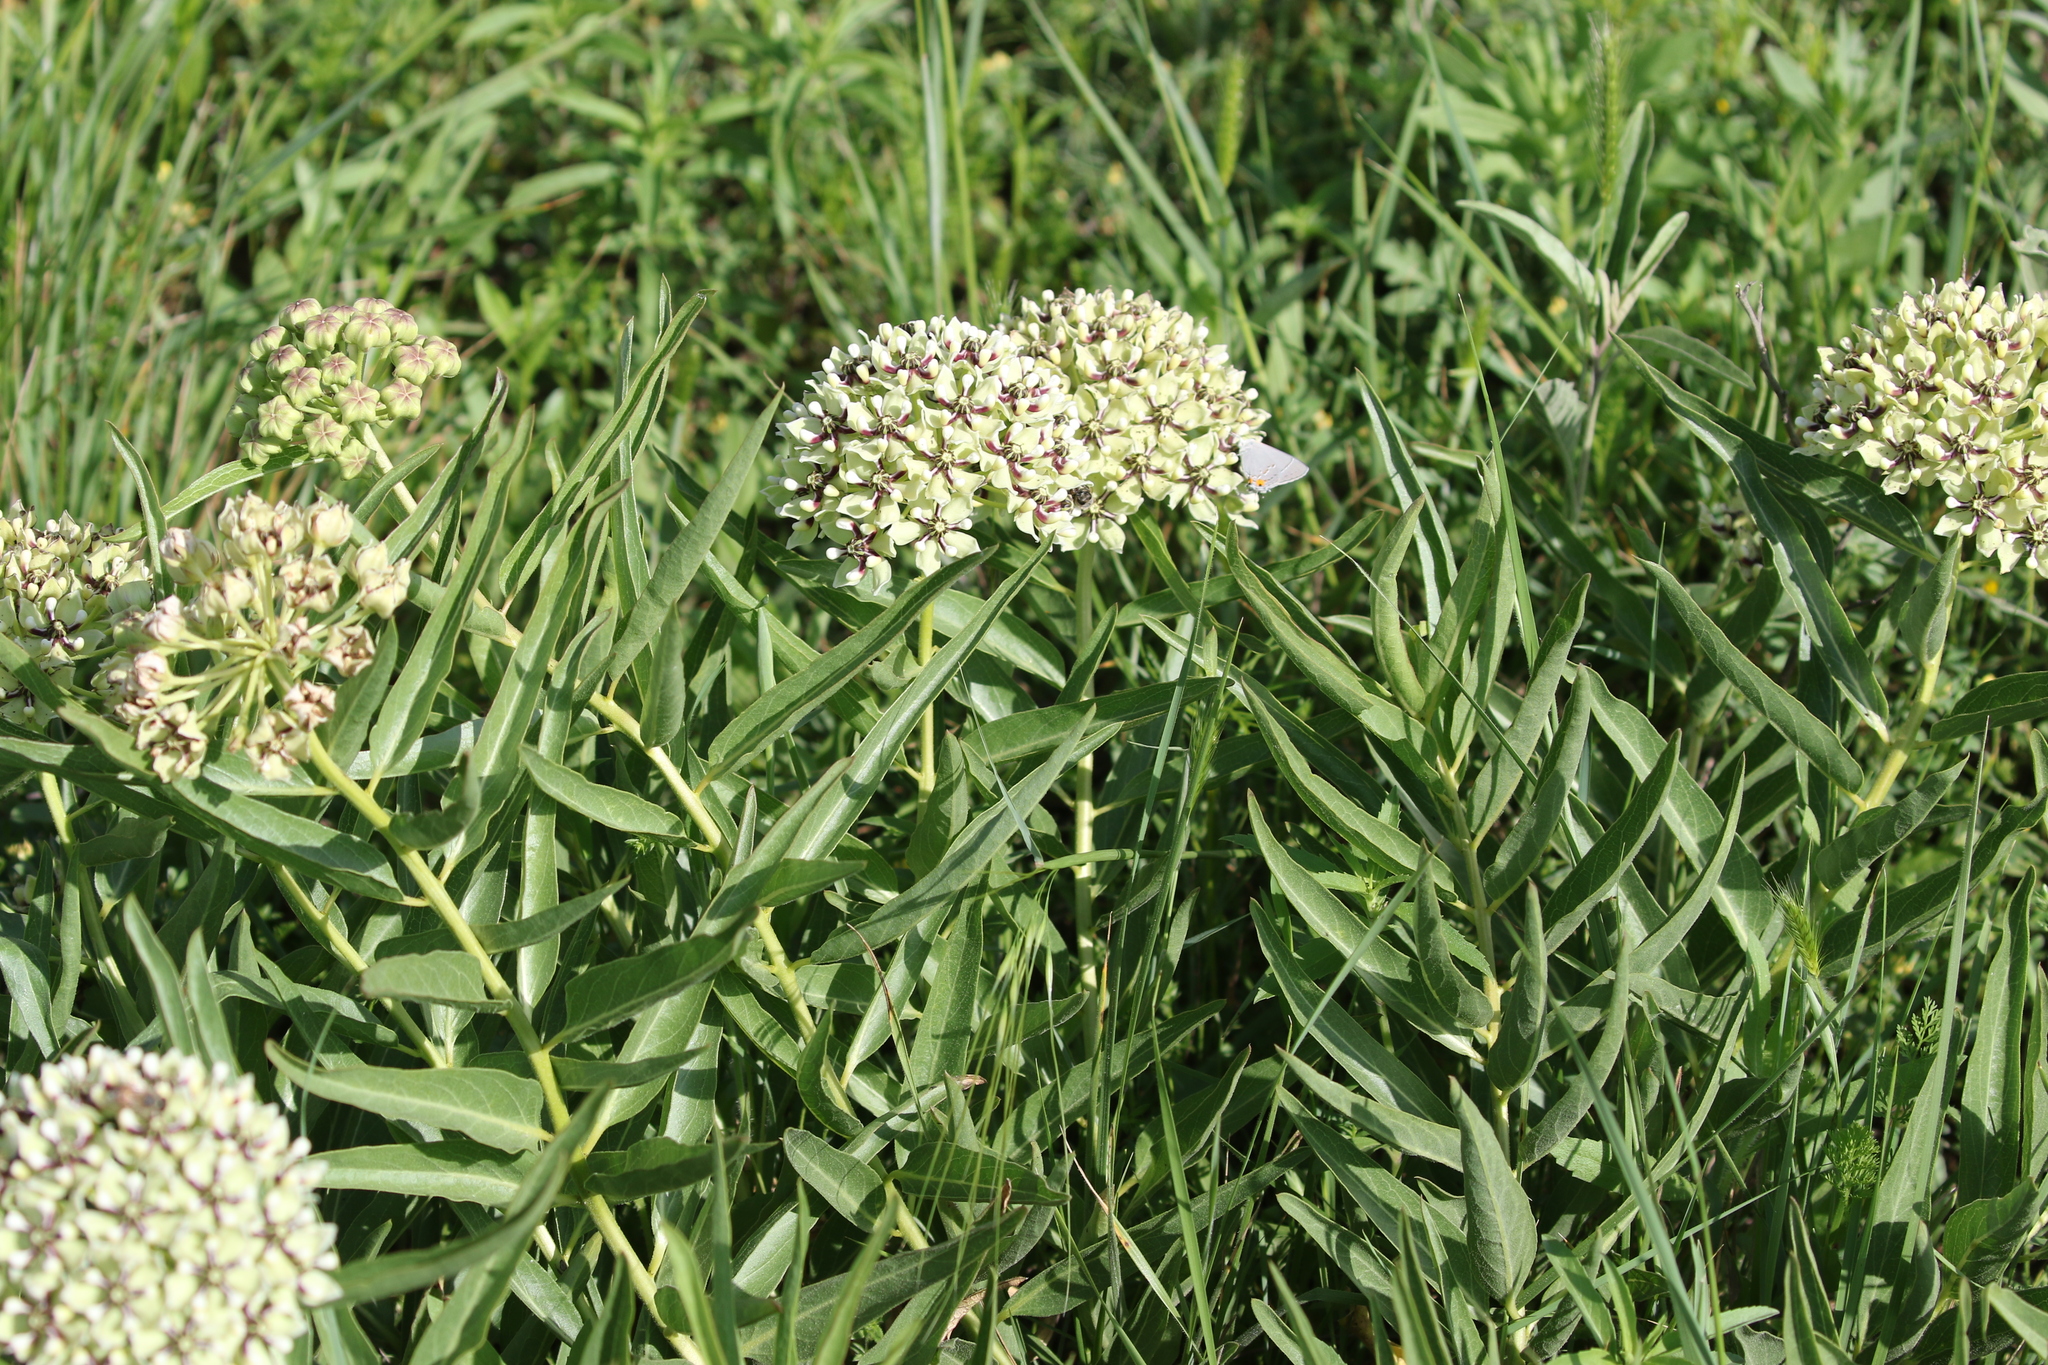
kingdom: Plantae
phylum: Tracheophyta
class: Magnoliopsida
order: Gentianales
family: Apocynaceae
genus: Asclepias
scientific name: Asclepias asperula
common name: Antelope horns
